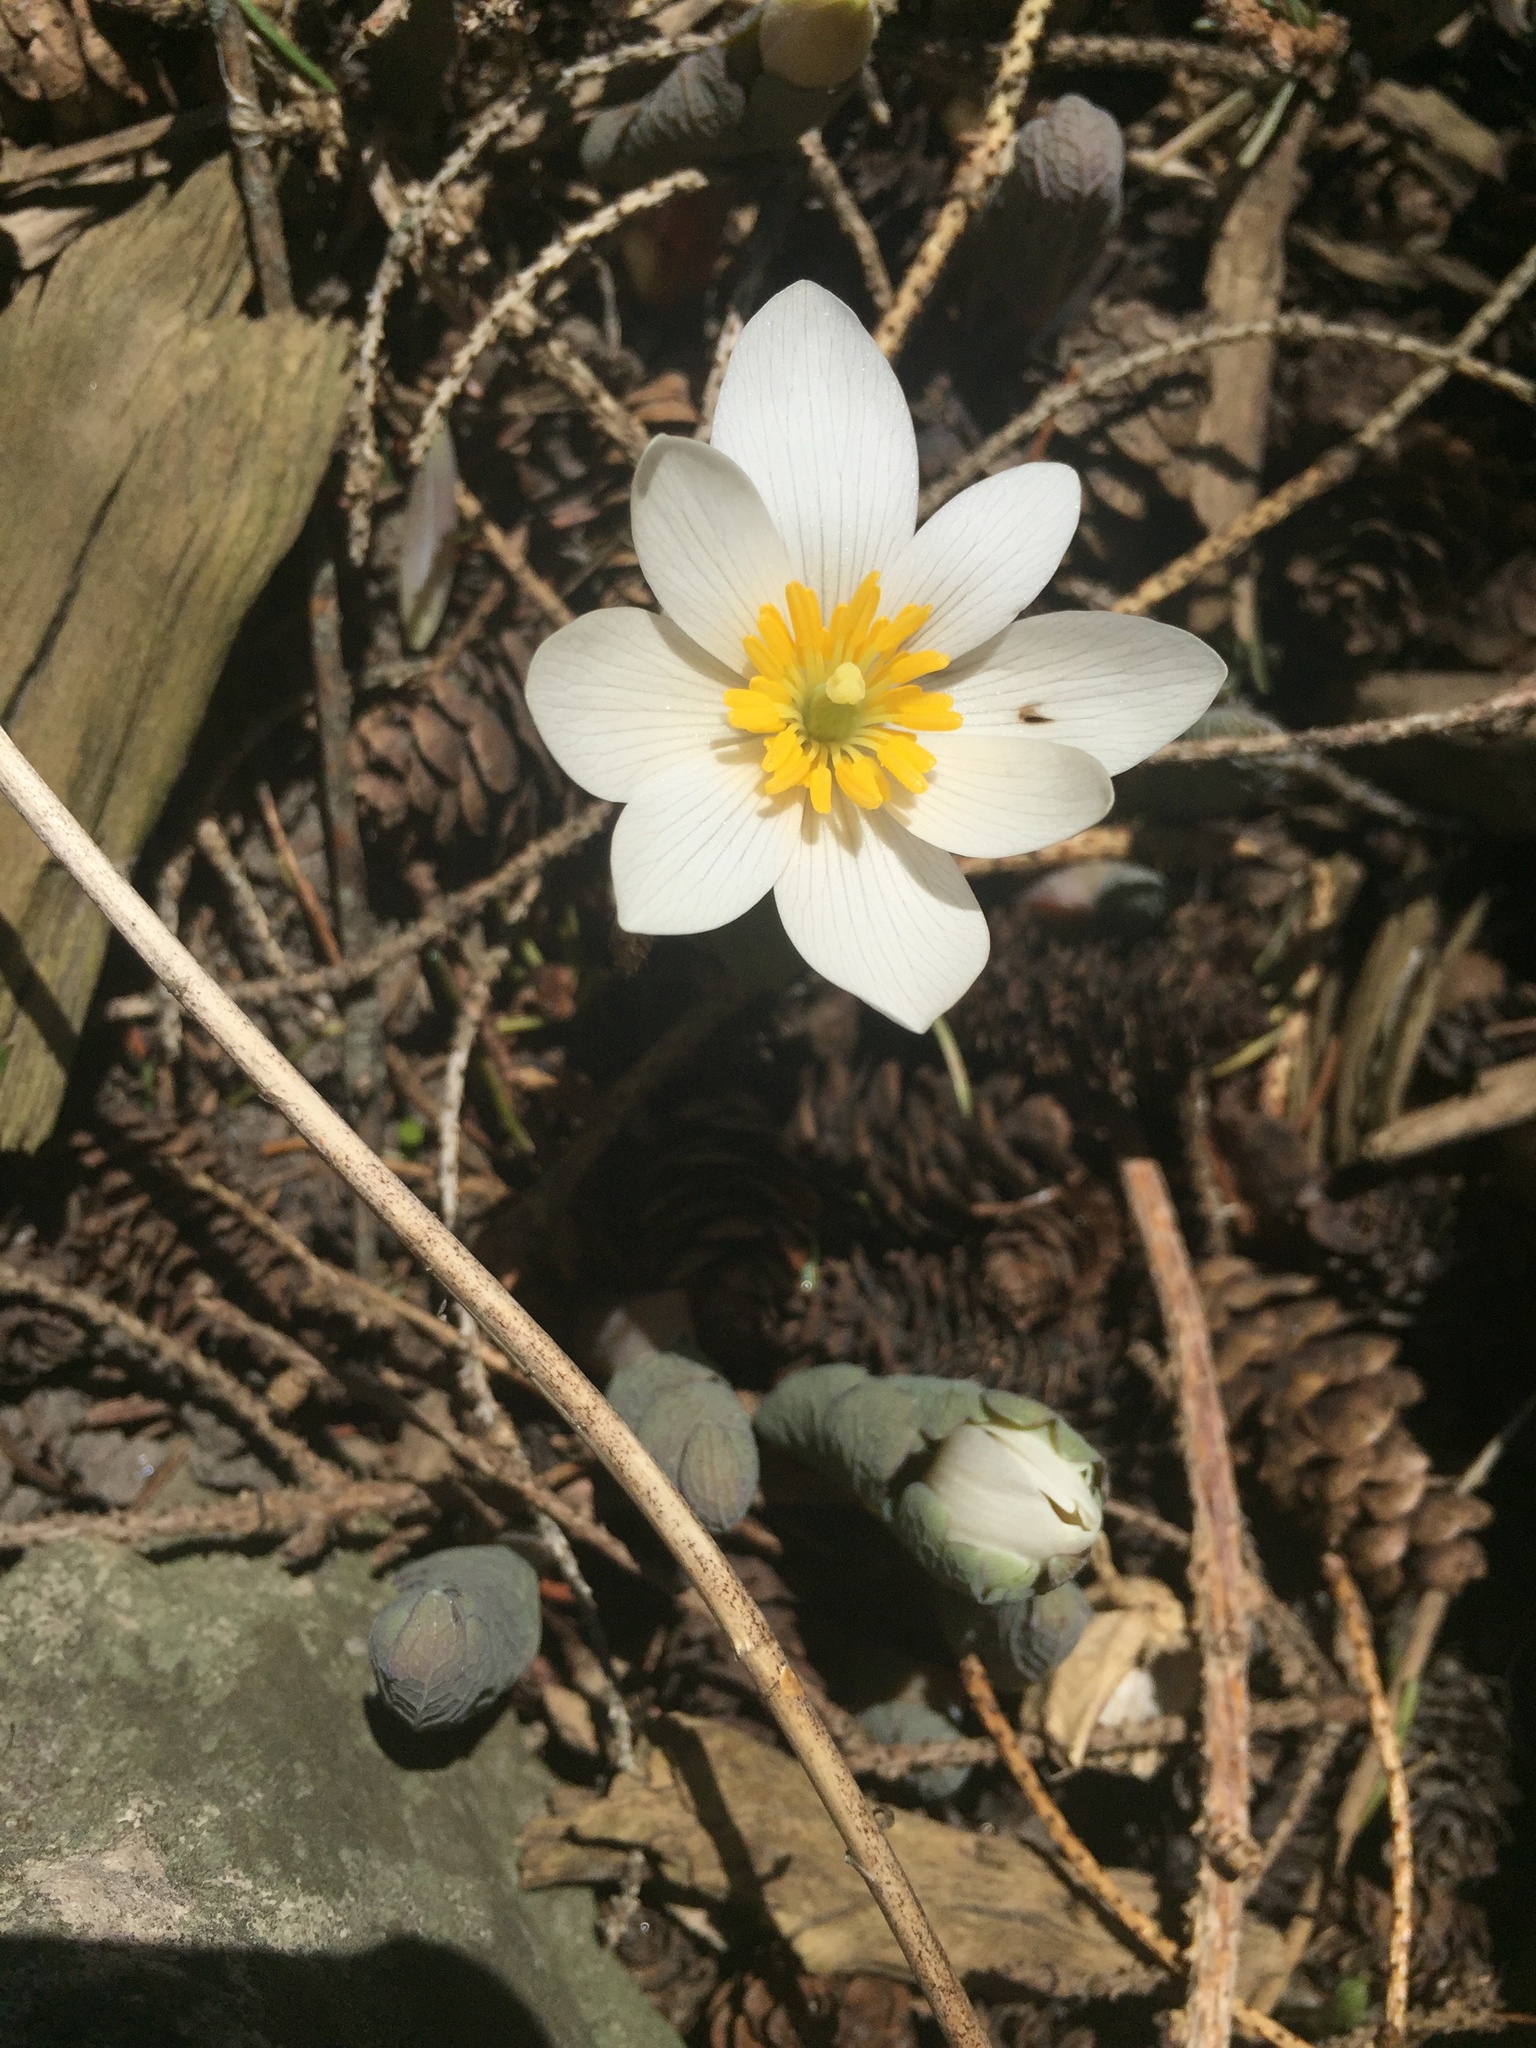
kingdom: Plantae
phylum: Tracheophyta
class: Magnoliopsida
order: Ranunculales
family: Papaveraceae
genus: Sanguinaria
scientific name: Sanguinaria canadensis
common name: Bloodroot
